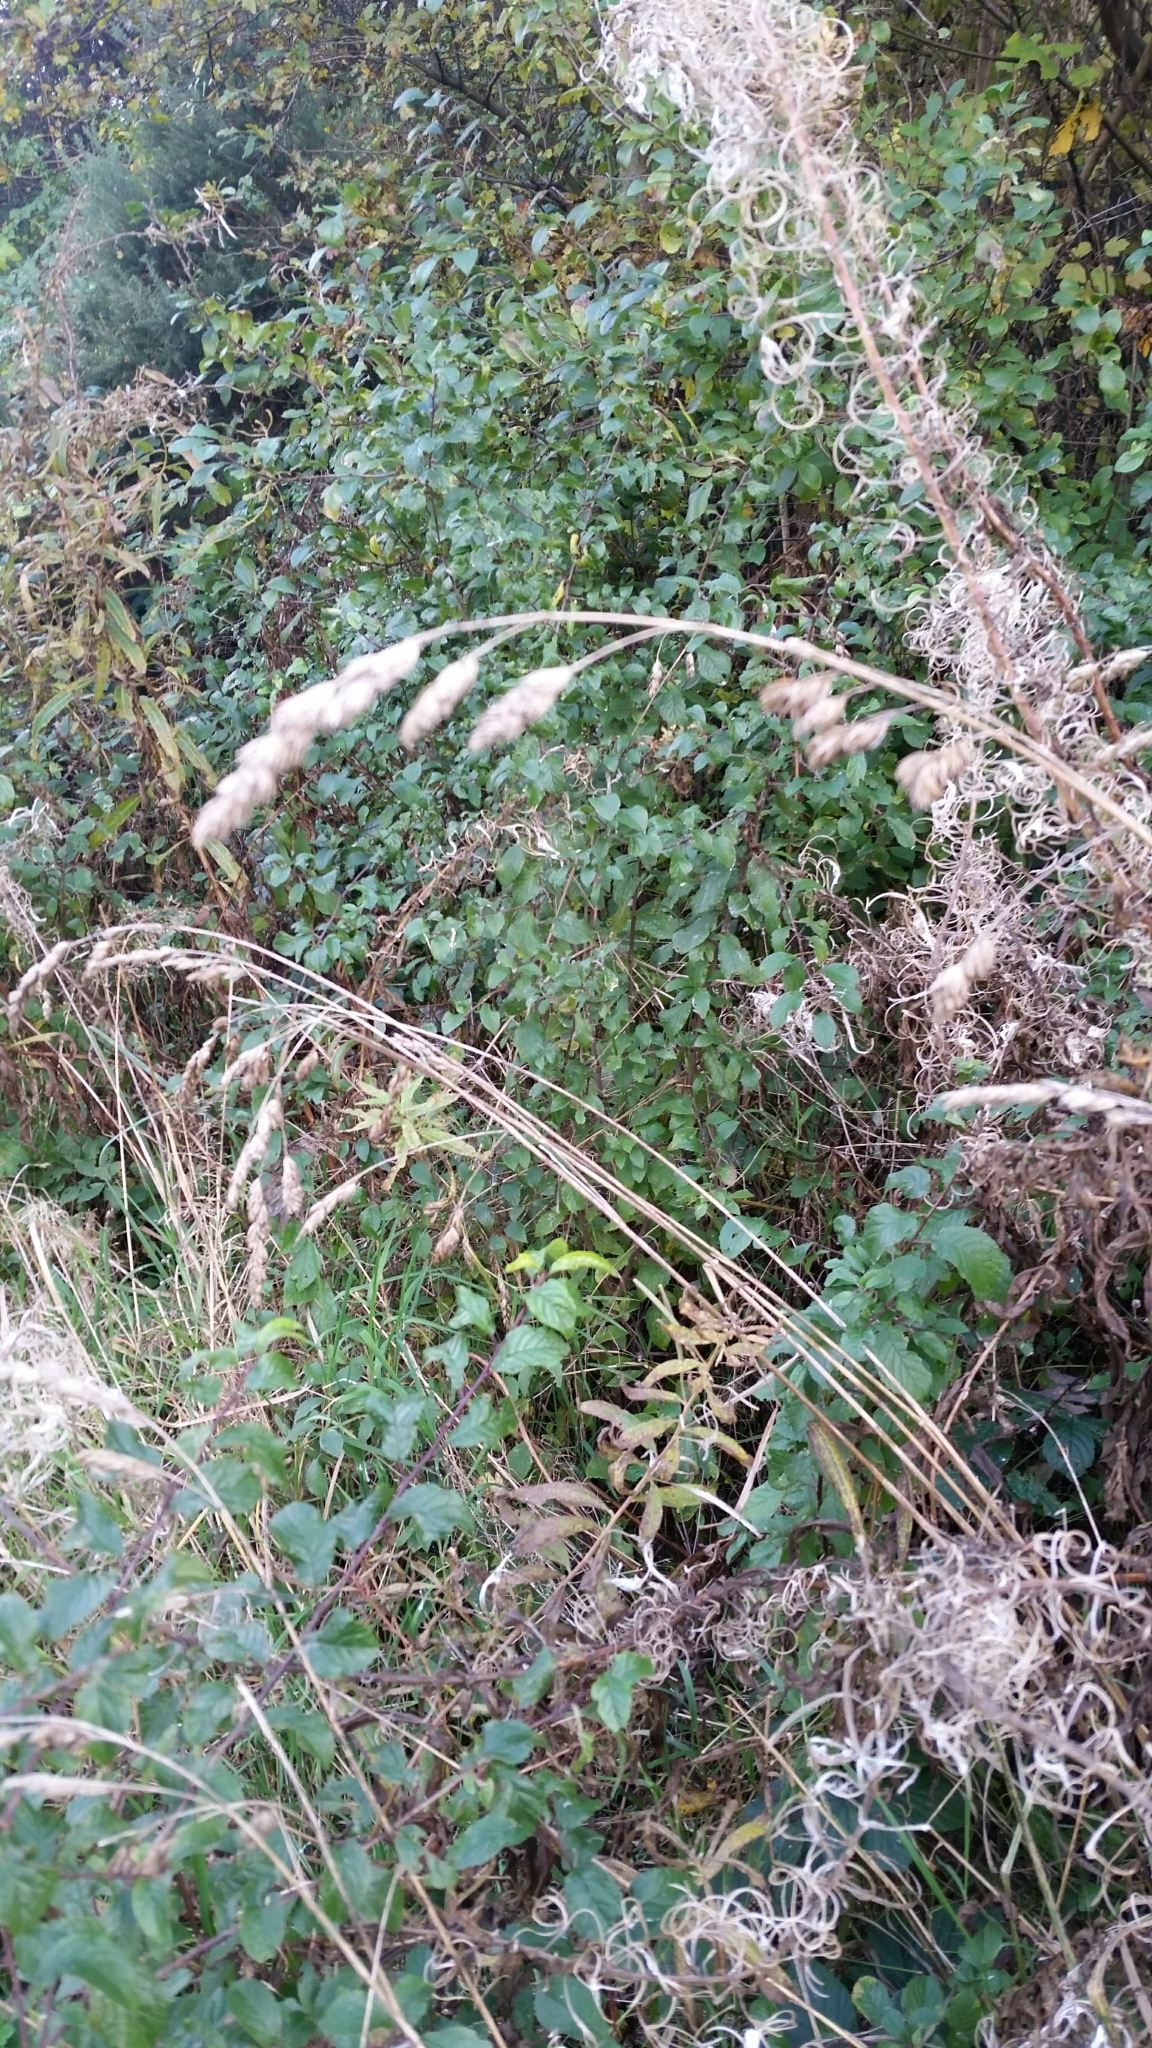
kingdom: Plantae
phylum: Tracheophyta
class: Liliopsida
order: Poales
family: Poaceae
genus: Dactylis
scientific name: Dactylis glomerata
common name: Orchardgrass
